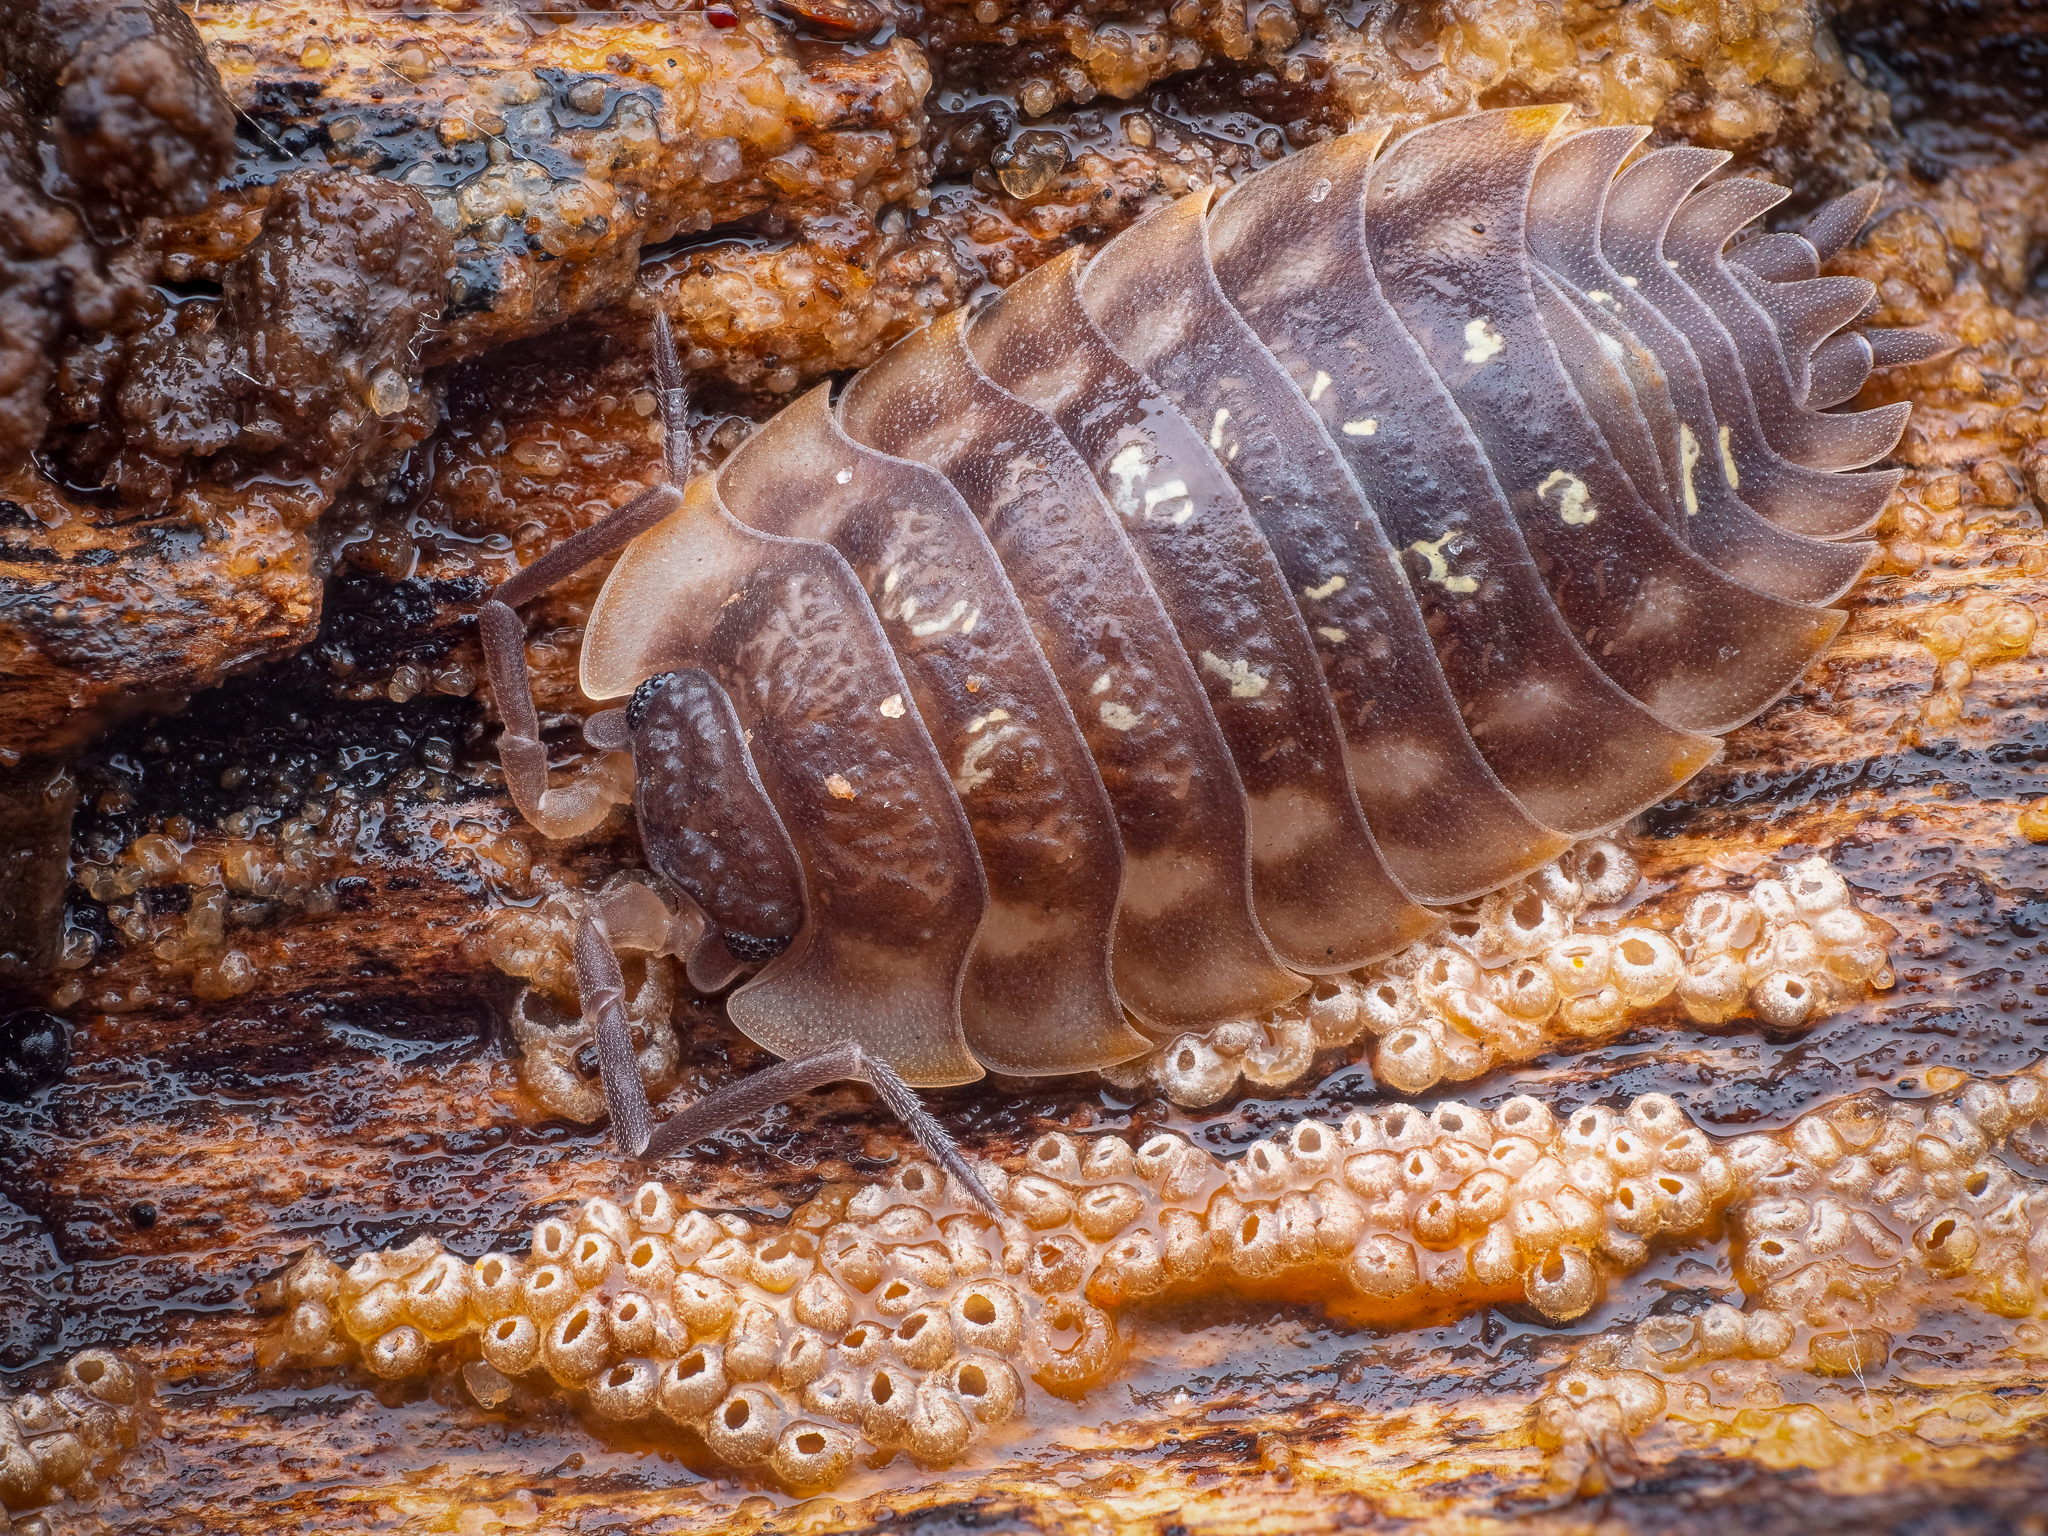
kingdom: Animalia
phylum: Arthropoda
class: Malacostraca
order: Isopoda
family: Oniscidae
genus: Oniscus
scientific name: Oniscus asellus
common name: Common shiny woodlouse
